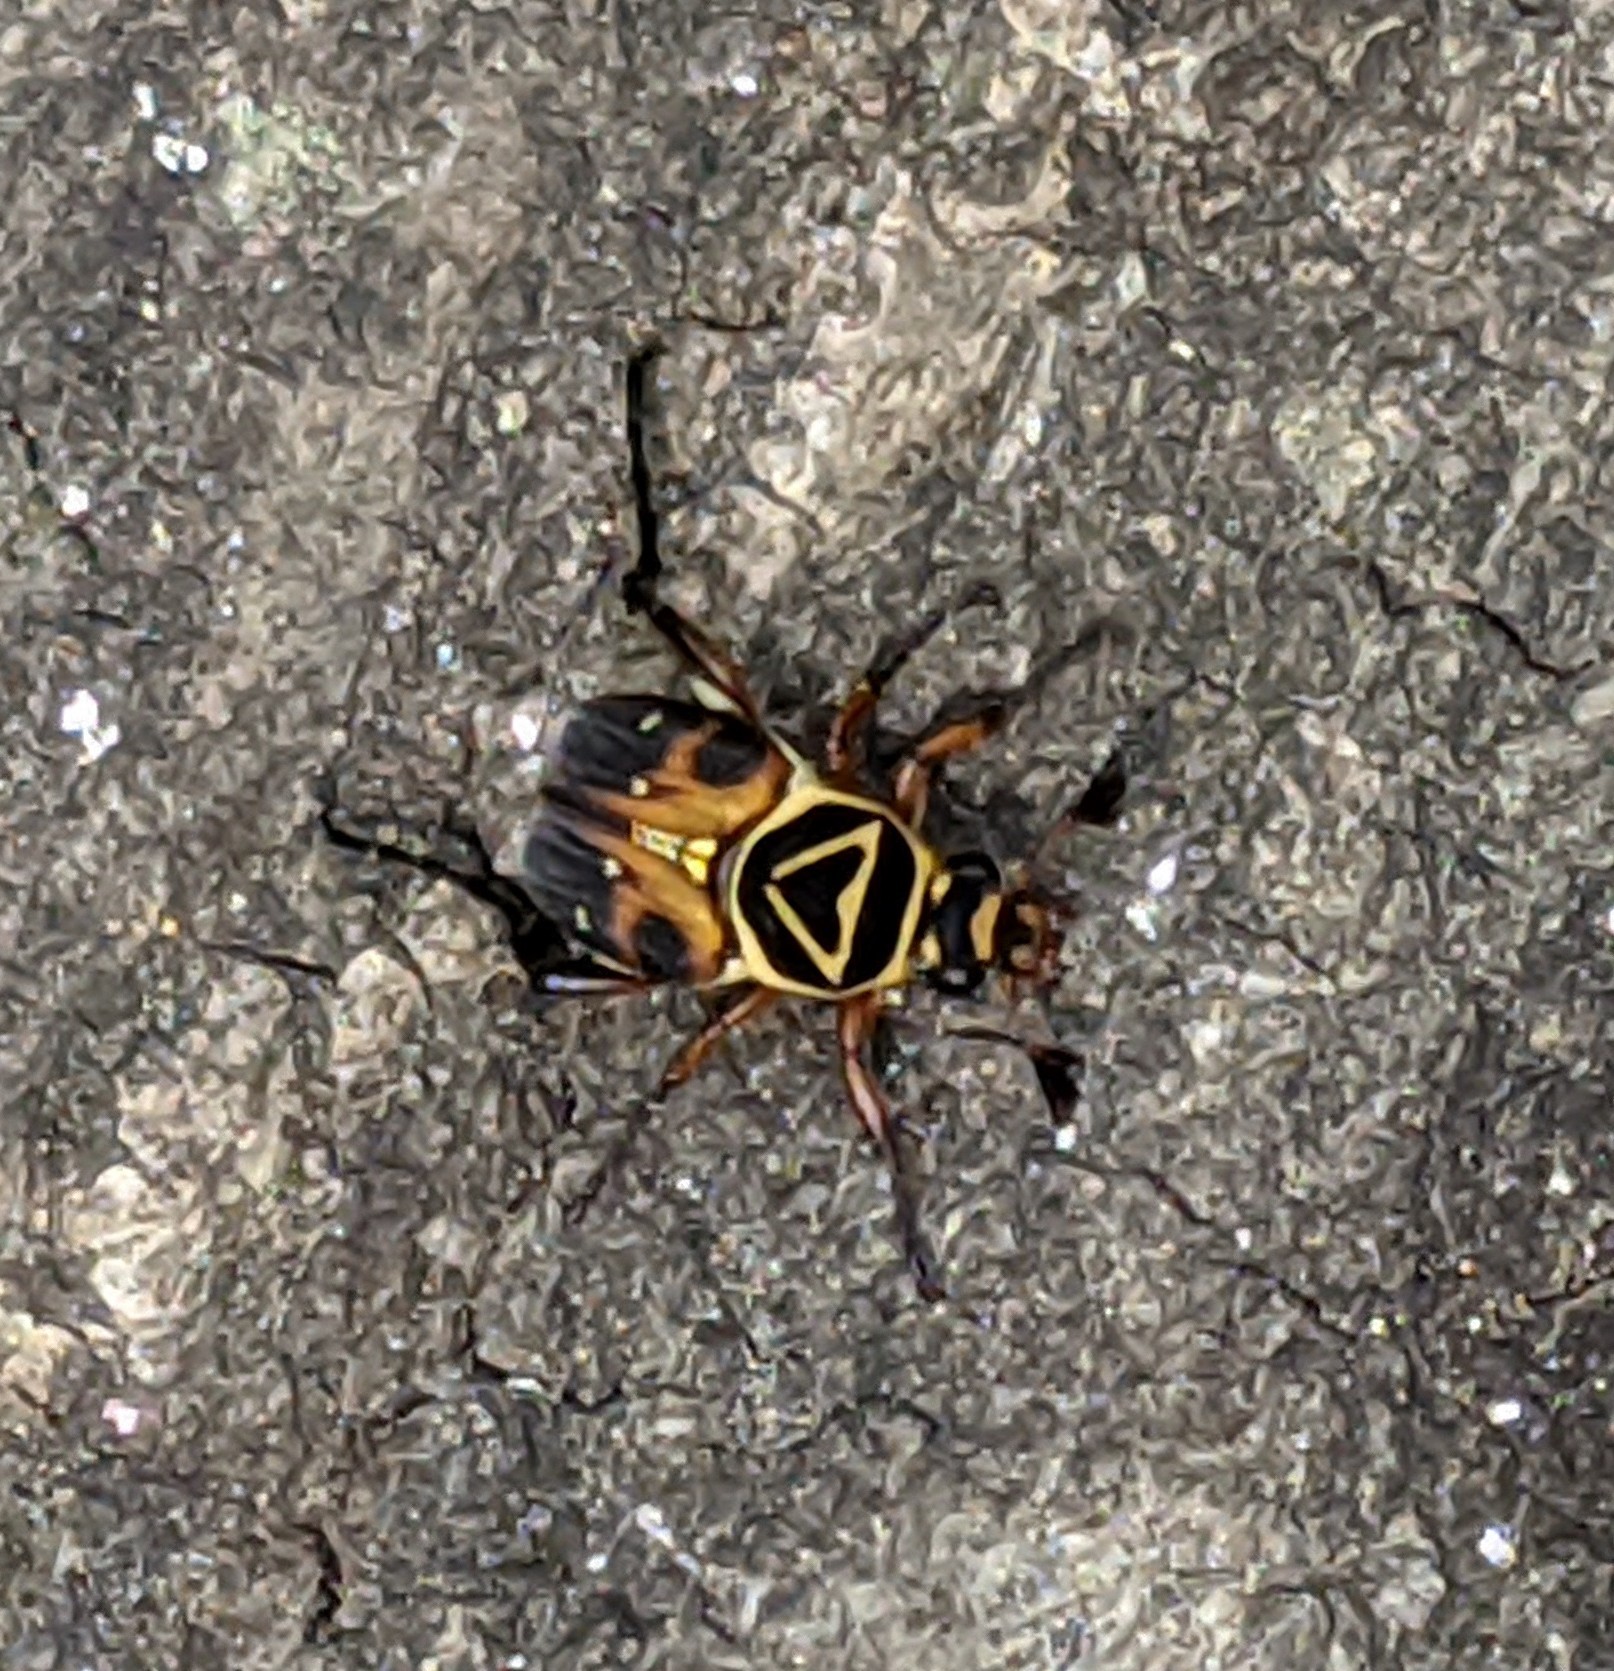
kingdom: Animalia
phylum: Arthropoda
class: Insecta
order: Coleoptera
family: Scarabaeidae
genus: Trigonopeltastes
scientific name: Trigonopeltastes delta
